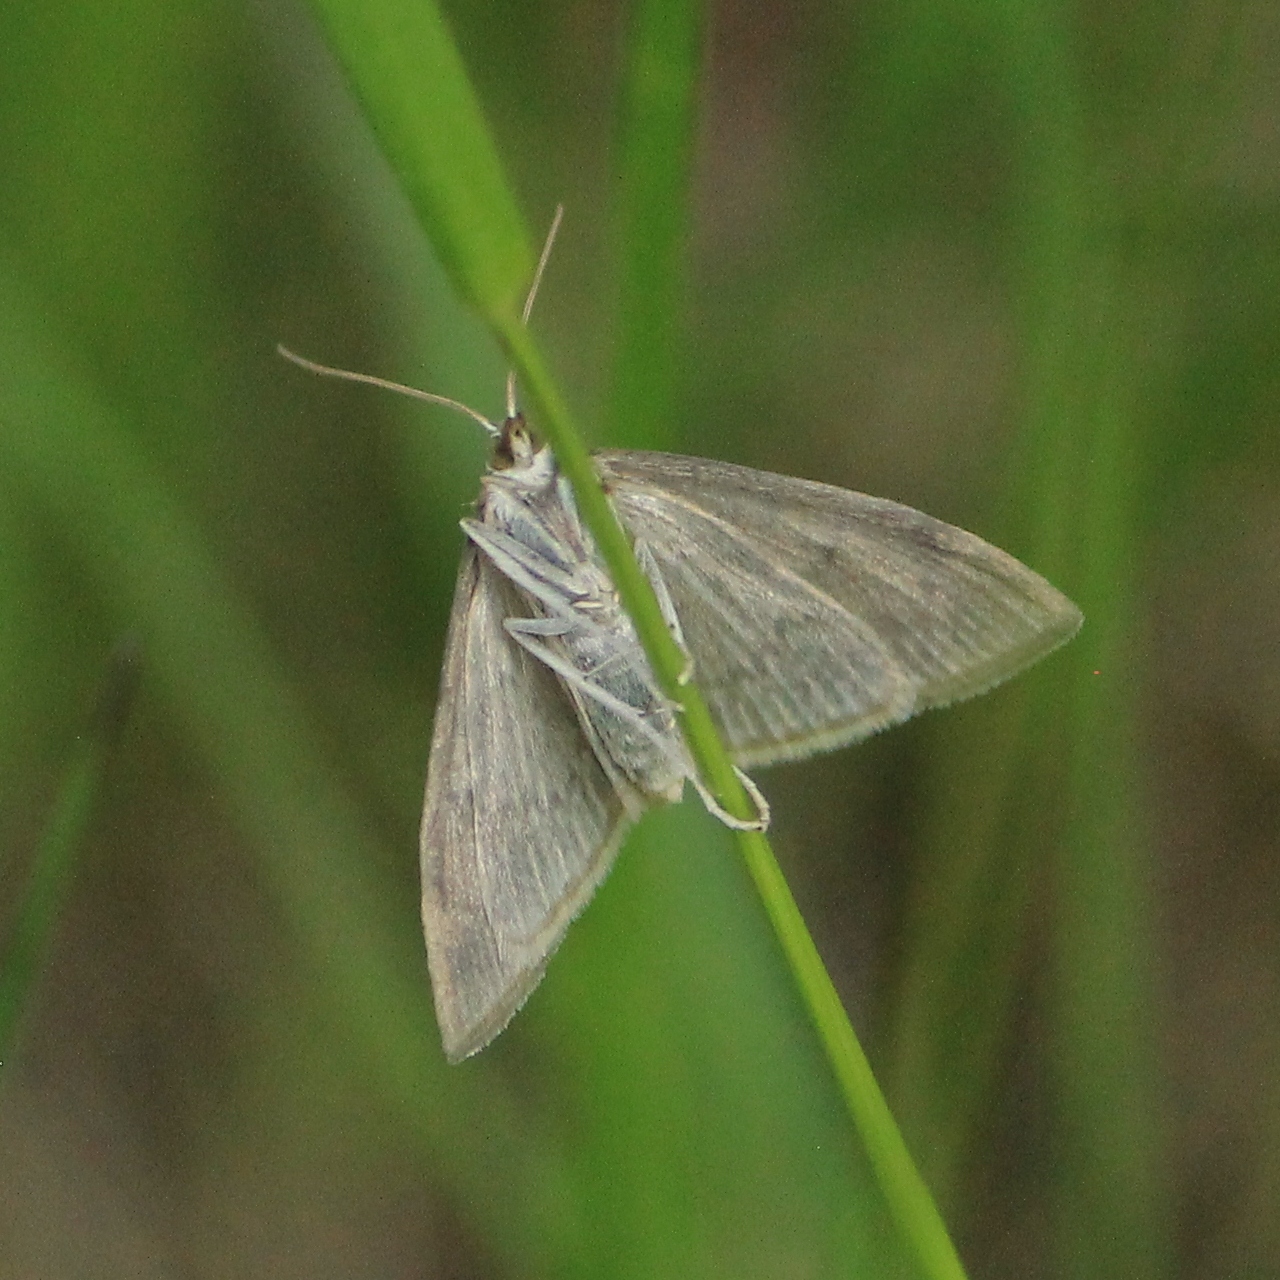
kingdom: Animalia
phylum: Arthropoda
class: Insecta
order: Lepidoptera
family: Crambidae
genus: Anania
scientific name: Anania fuscalis
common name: Cinerous pearl
